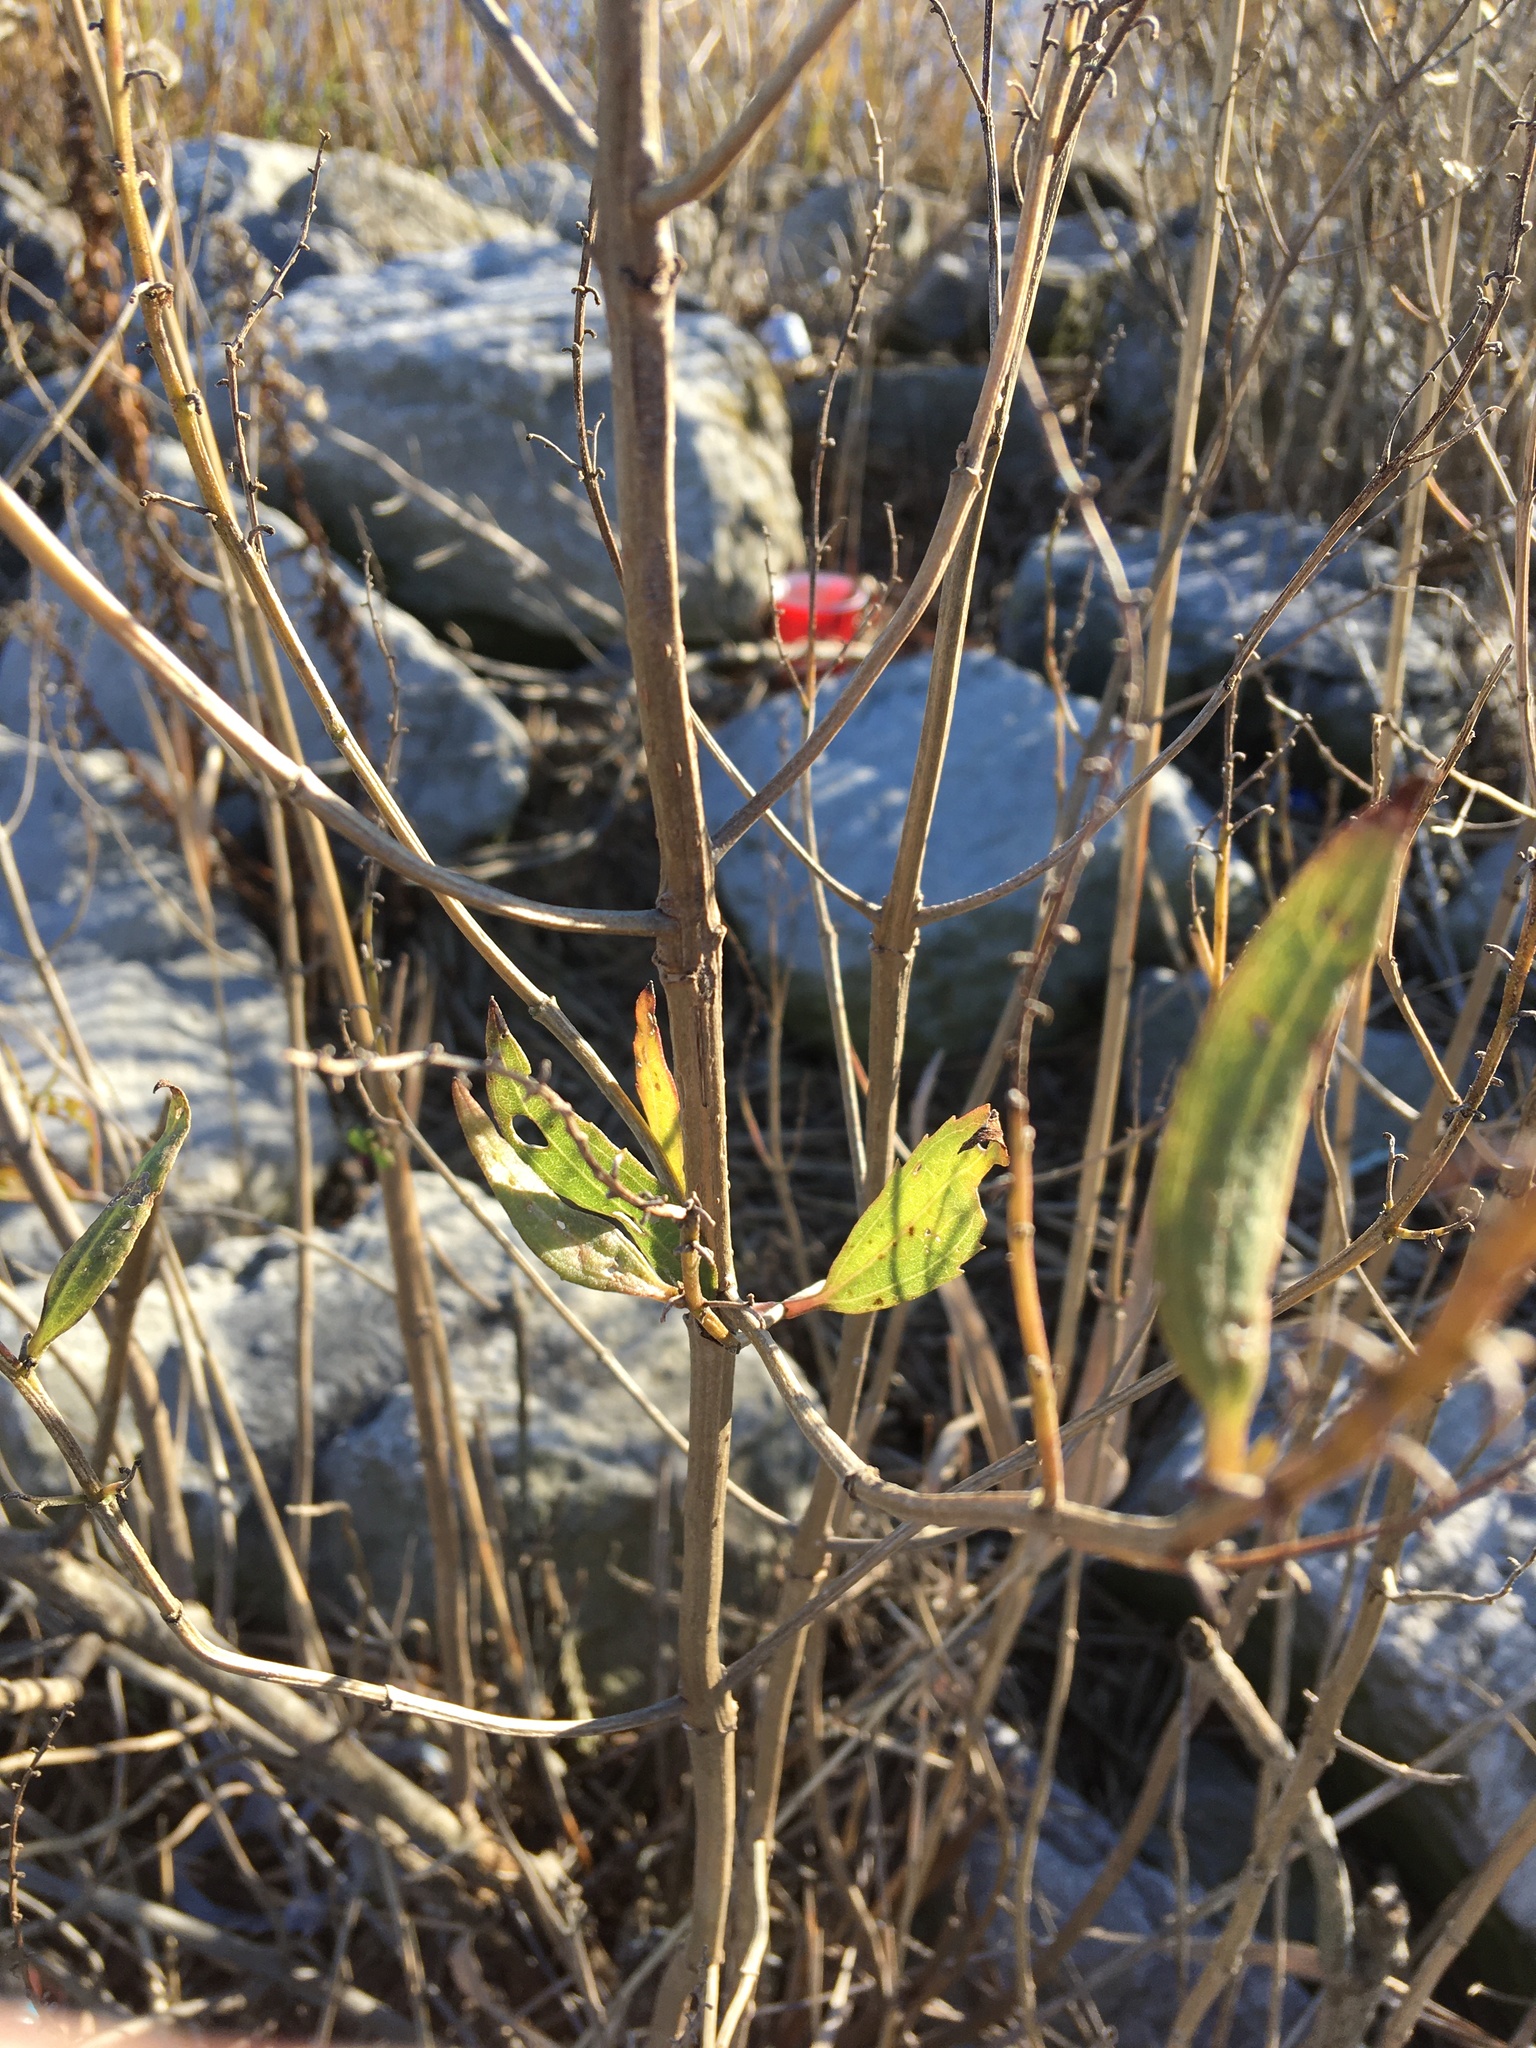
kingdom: Plantae
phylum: Tracheophyta
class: Magnoliopsida
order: Asterales
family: Asteraceae
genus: Iva
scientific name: Iva frutescens
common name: Big-leaved marsh-elder
